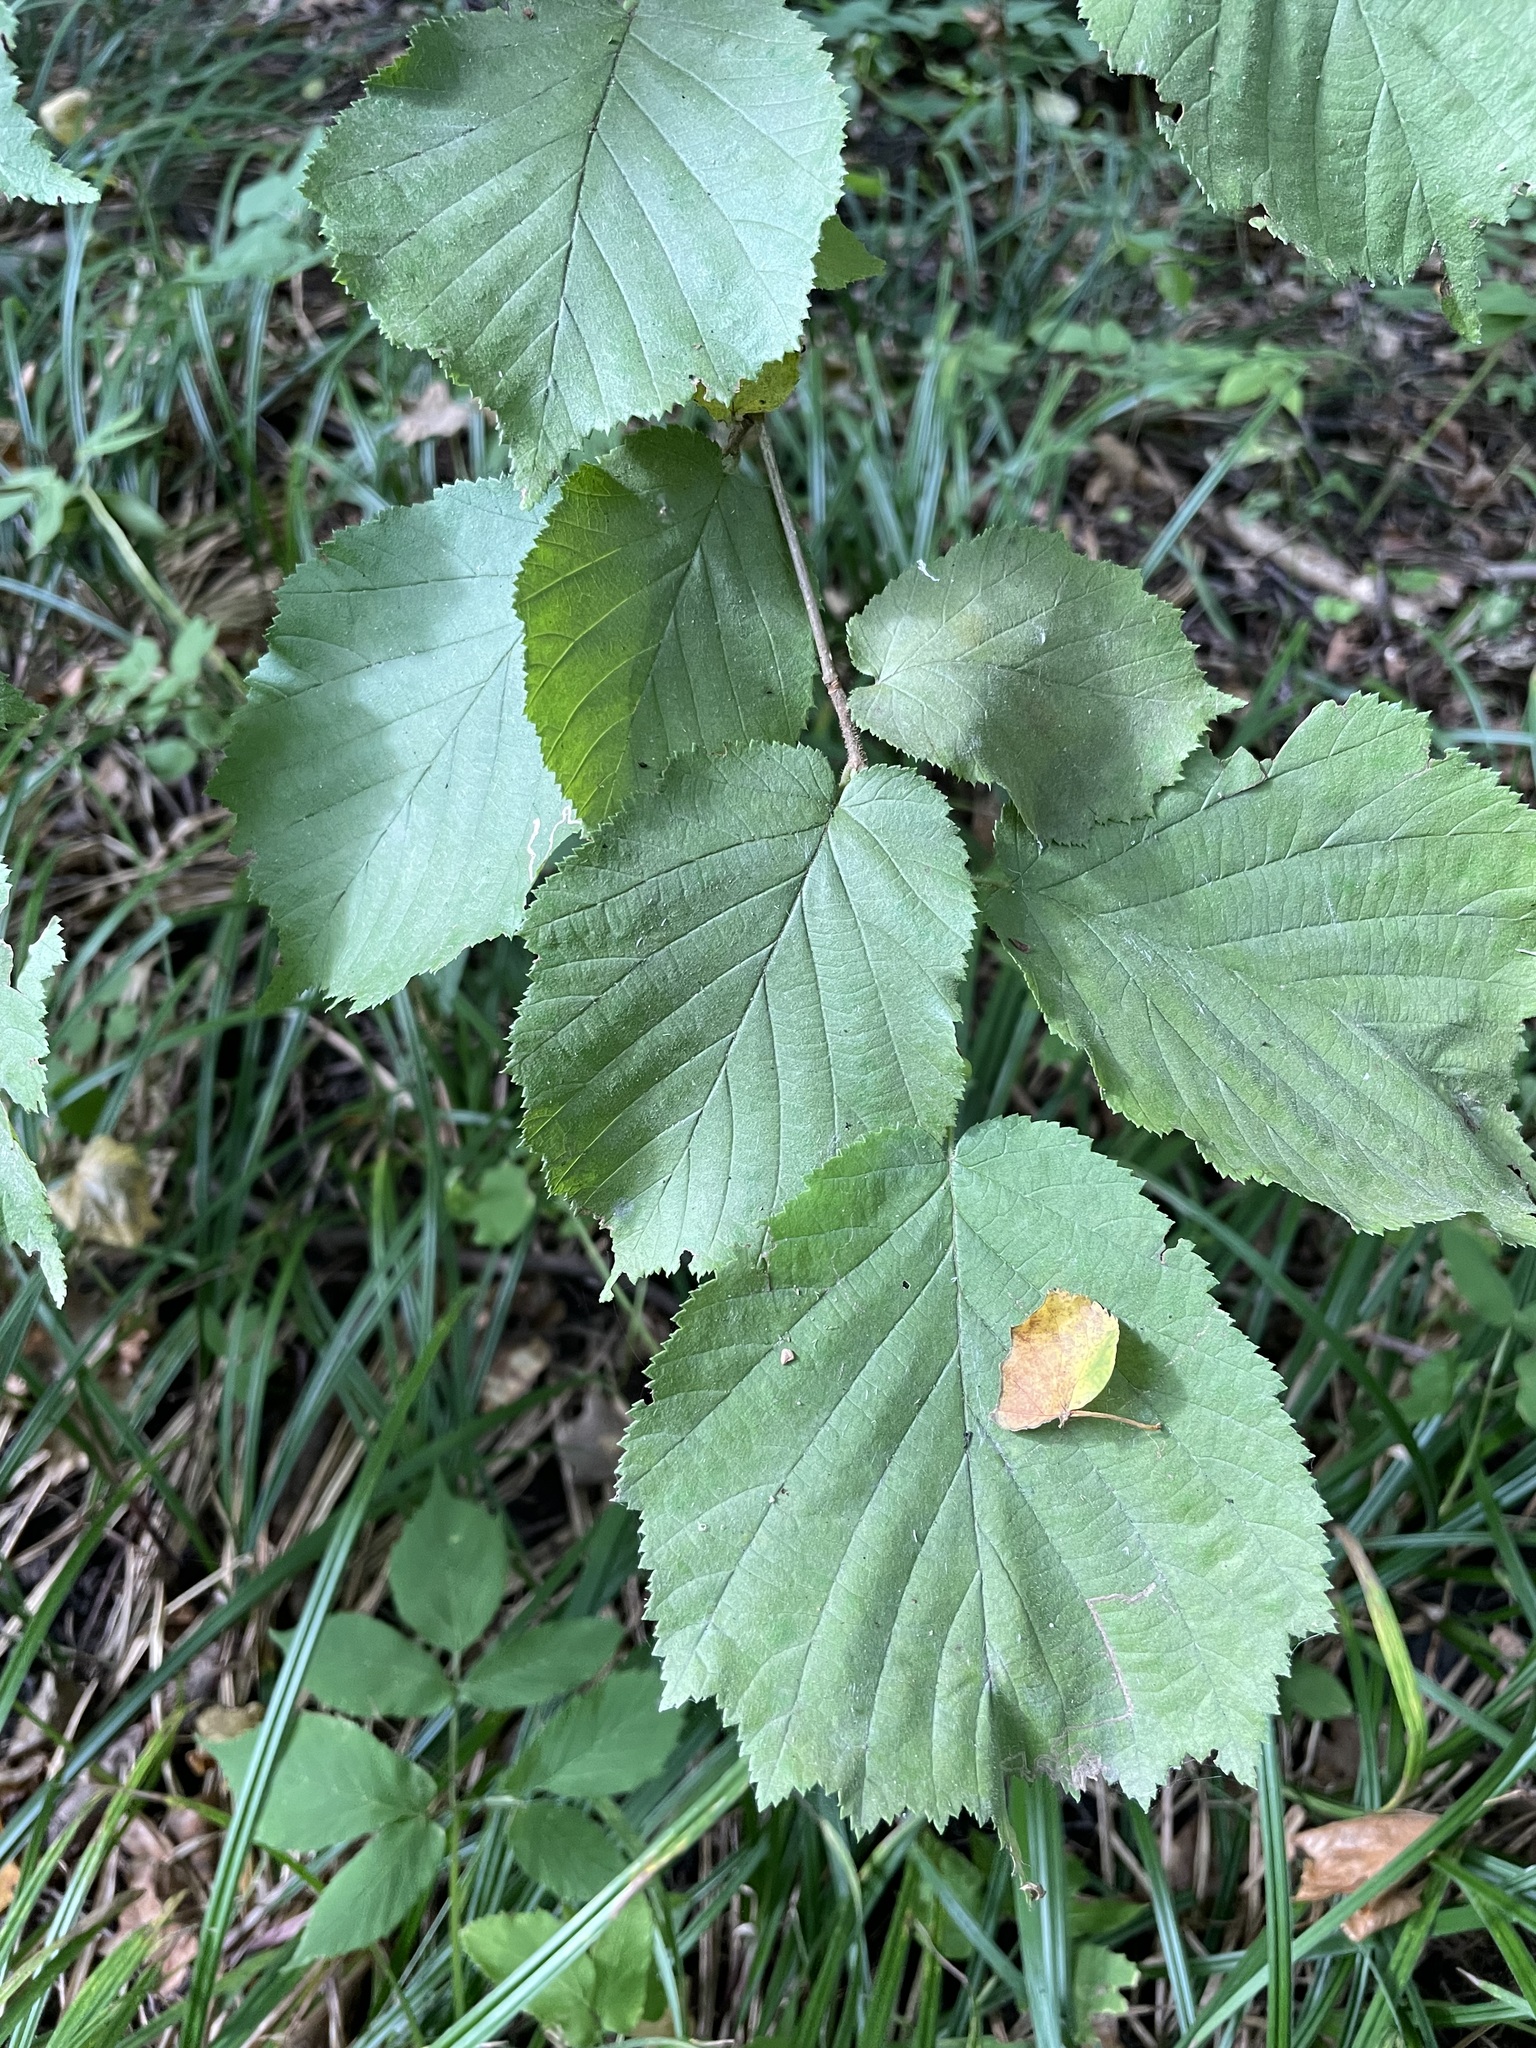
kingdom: Plantae
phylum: Tracheophyta
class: Magnoliopsida
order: Fagales
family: Betulaceae
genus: Corylus
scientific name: Corylus avellana
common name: European hazel
